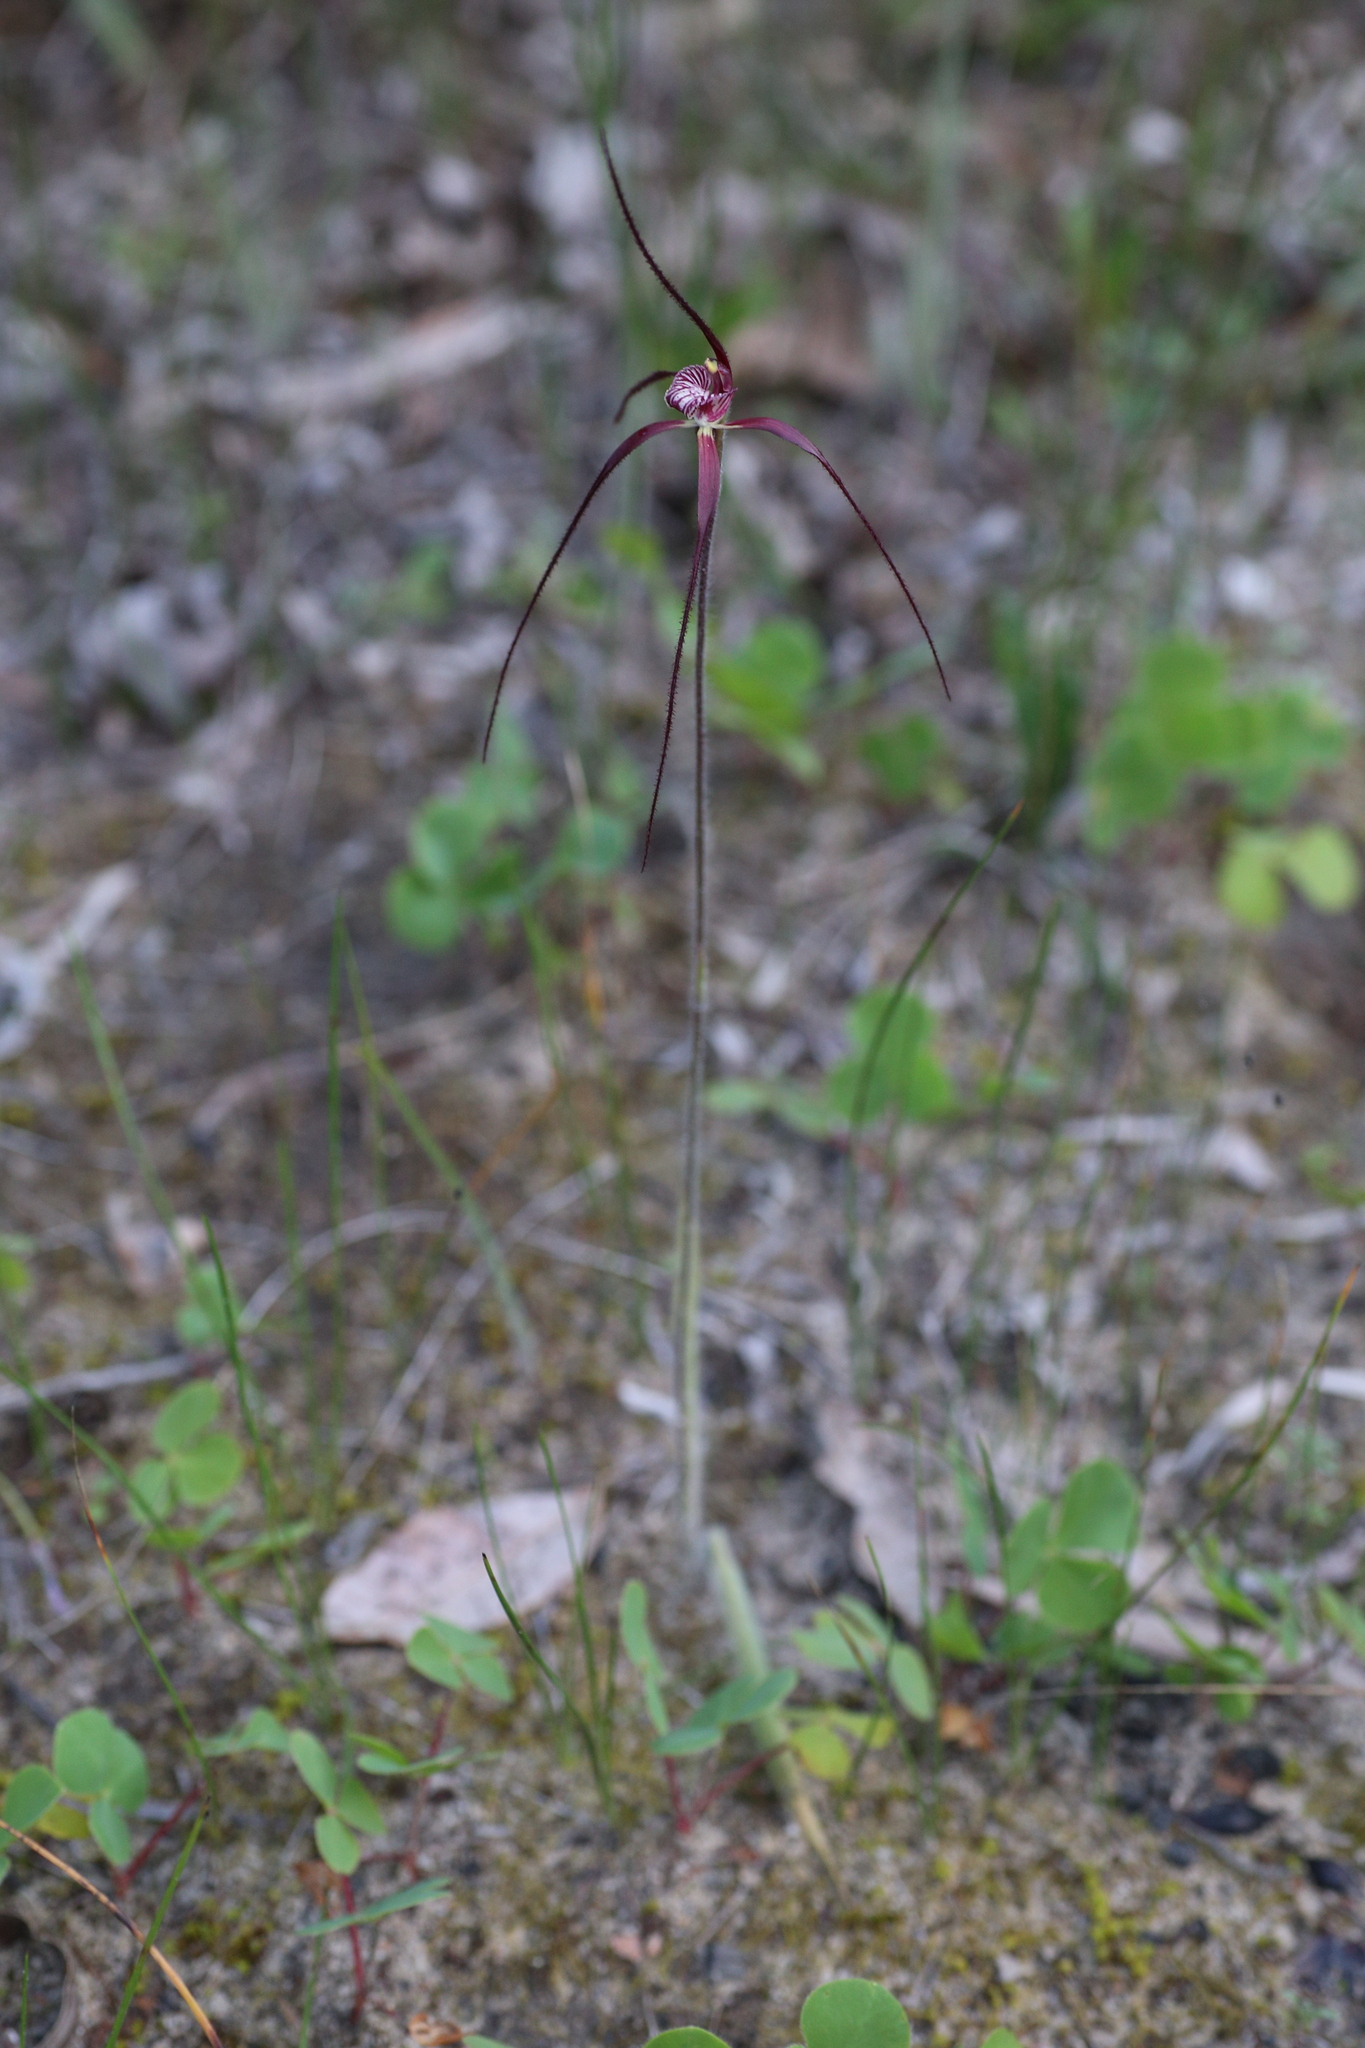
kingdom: Plantae
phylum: Tracheophyta
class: Liliopsida
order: Asparagales
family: Orchidaceae
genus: Caladenia
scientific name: Caladenia chapmanii
